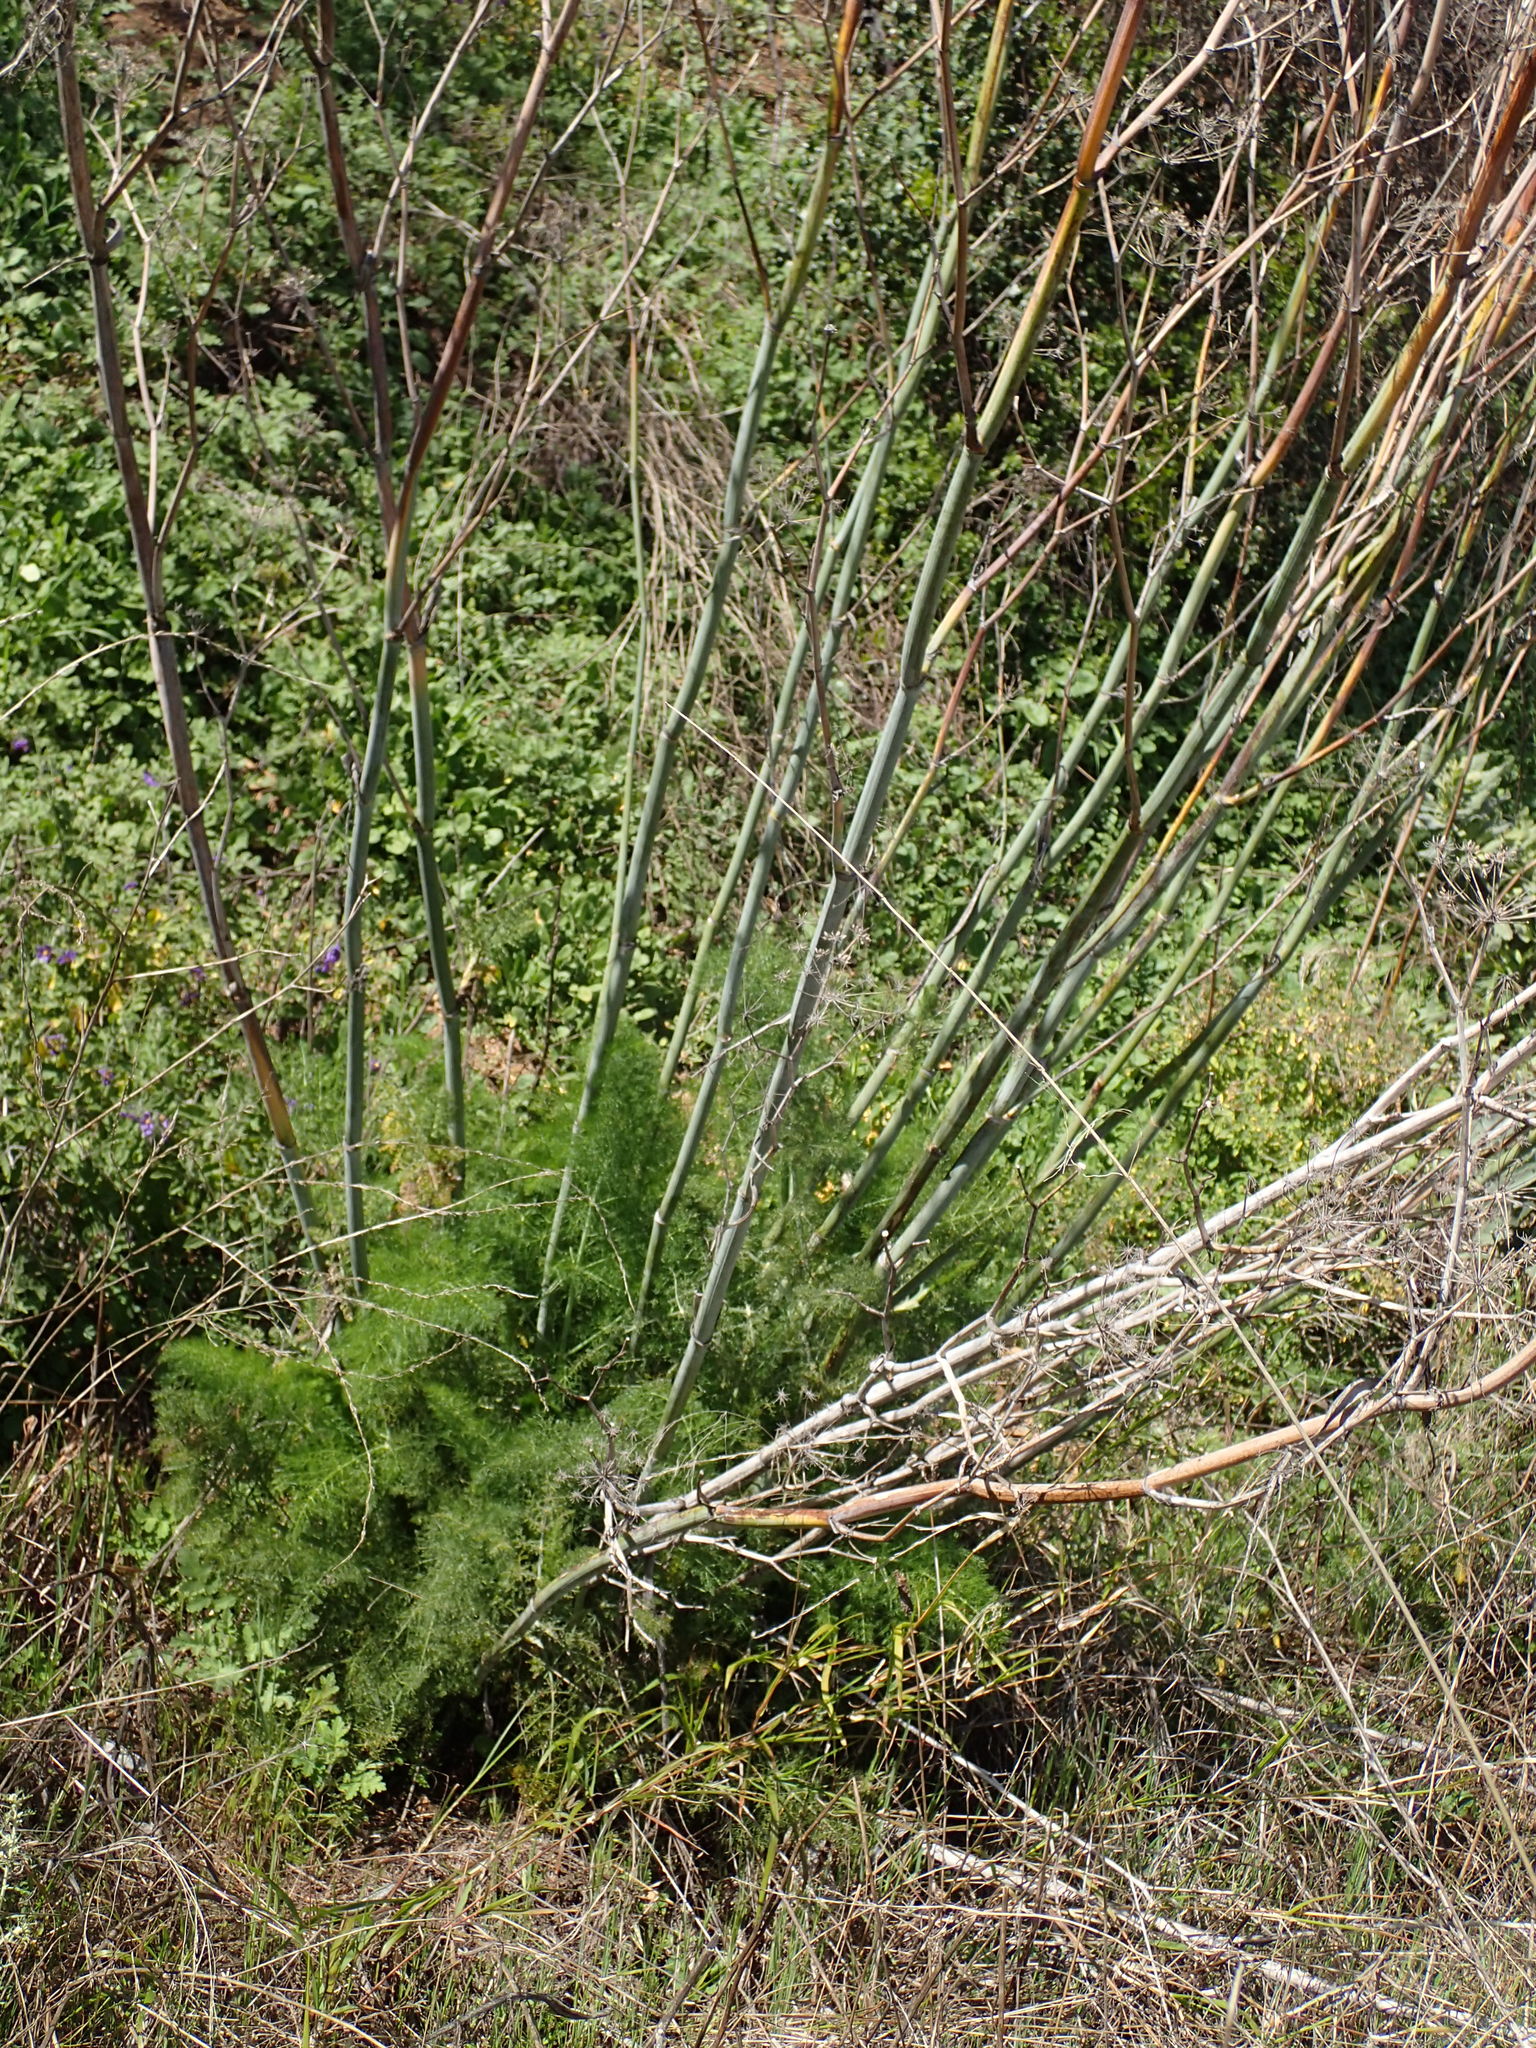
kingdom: Plantae
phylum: Tracheophyta
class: Magnoliopsida
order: Apiales
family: Apiaceae
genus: Foeniculum
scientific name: Foeniculum vulgare
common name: Fennel
